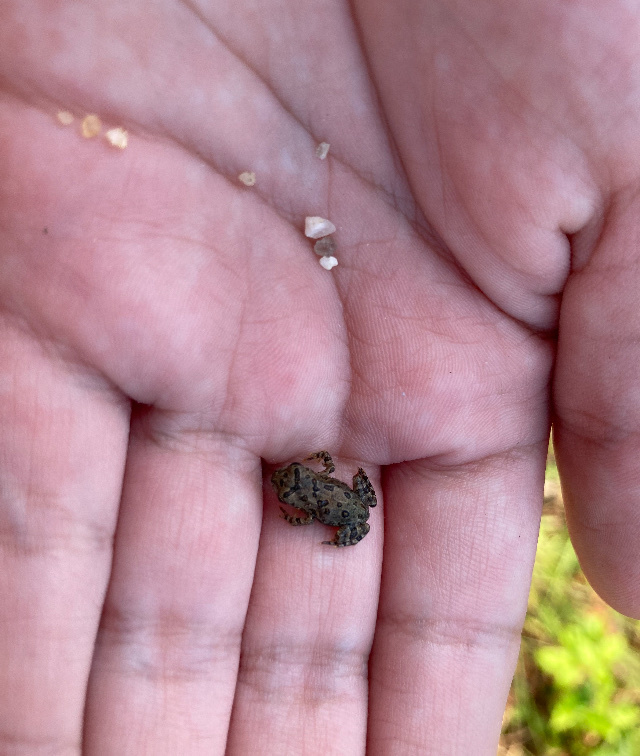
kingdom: Animalia
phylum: Chordata
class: Amphibia
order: Anura
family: Bufonidae
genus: Anaxyrus
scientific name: Anaxyrus fowleri
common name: Fowler's toad
